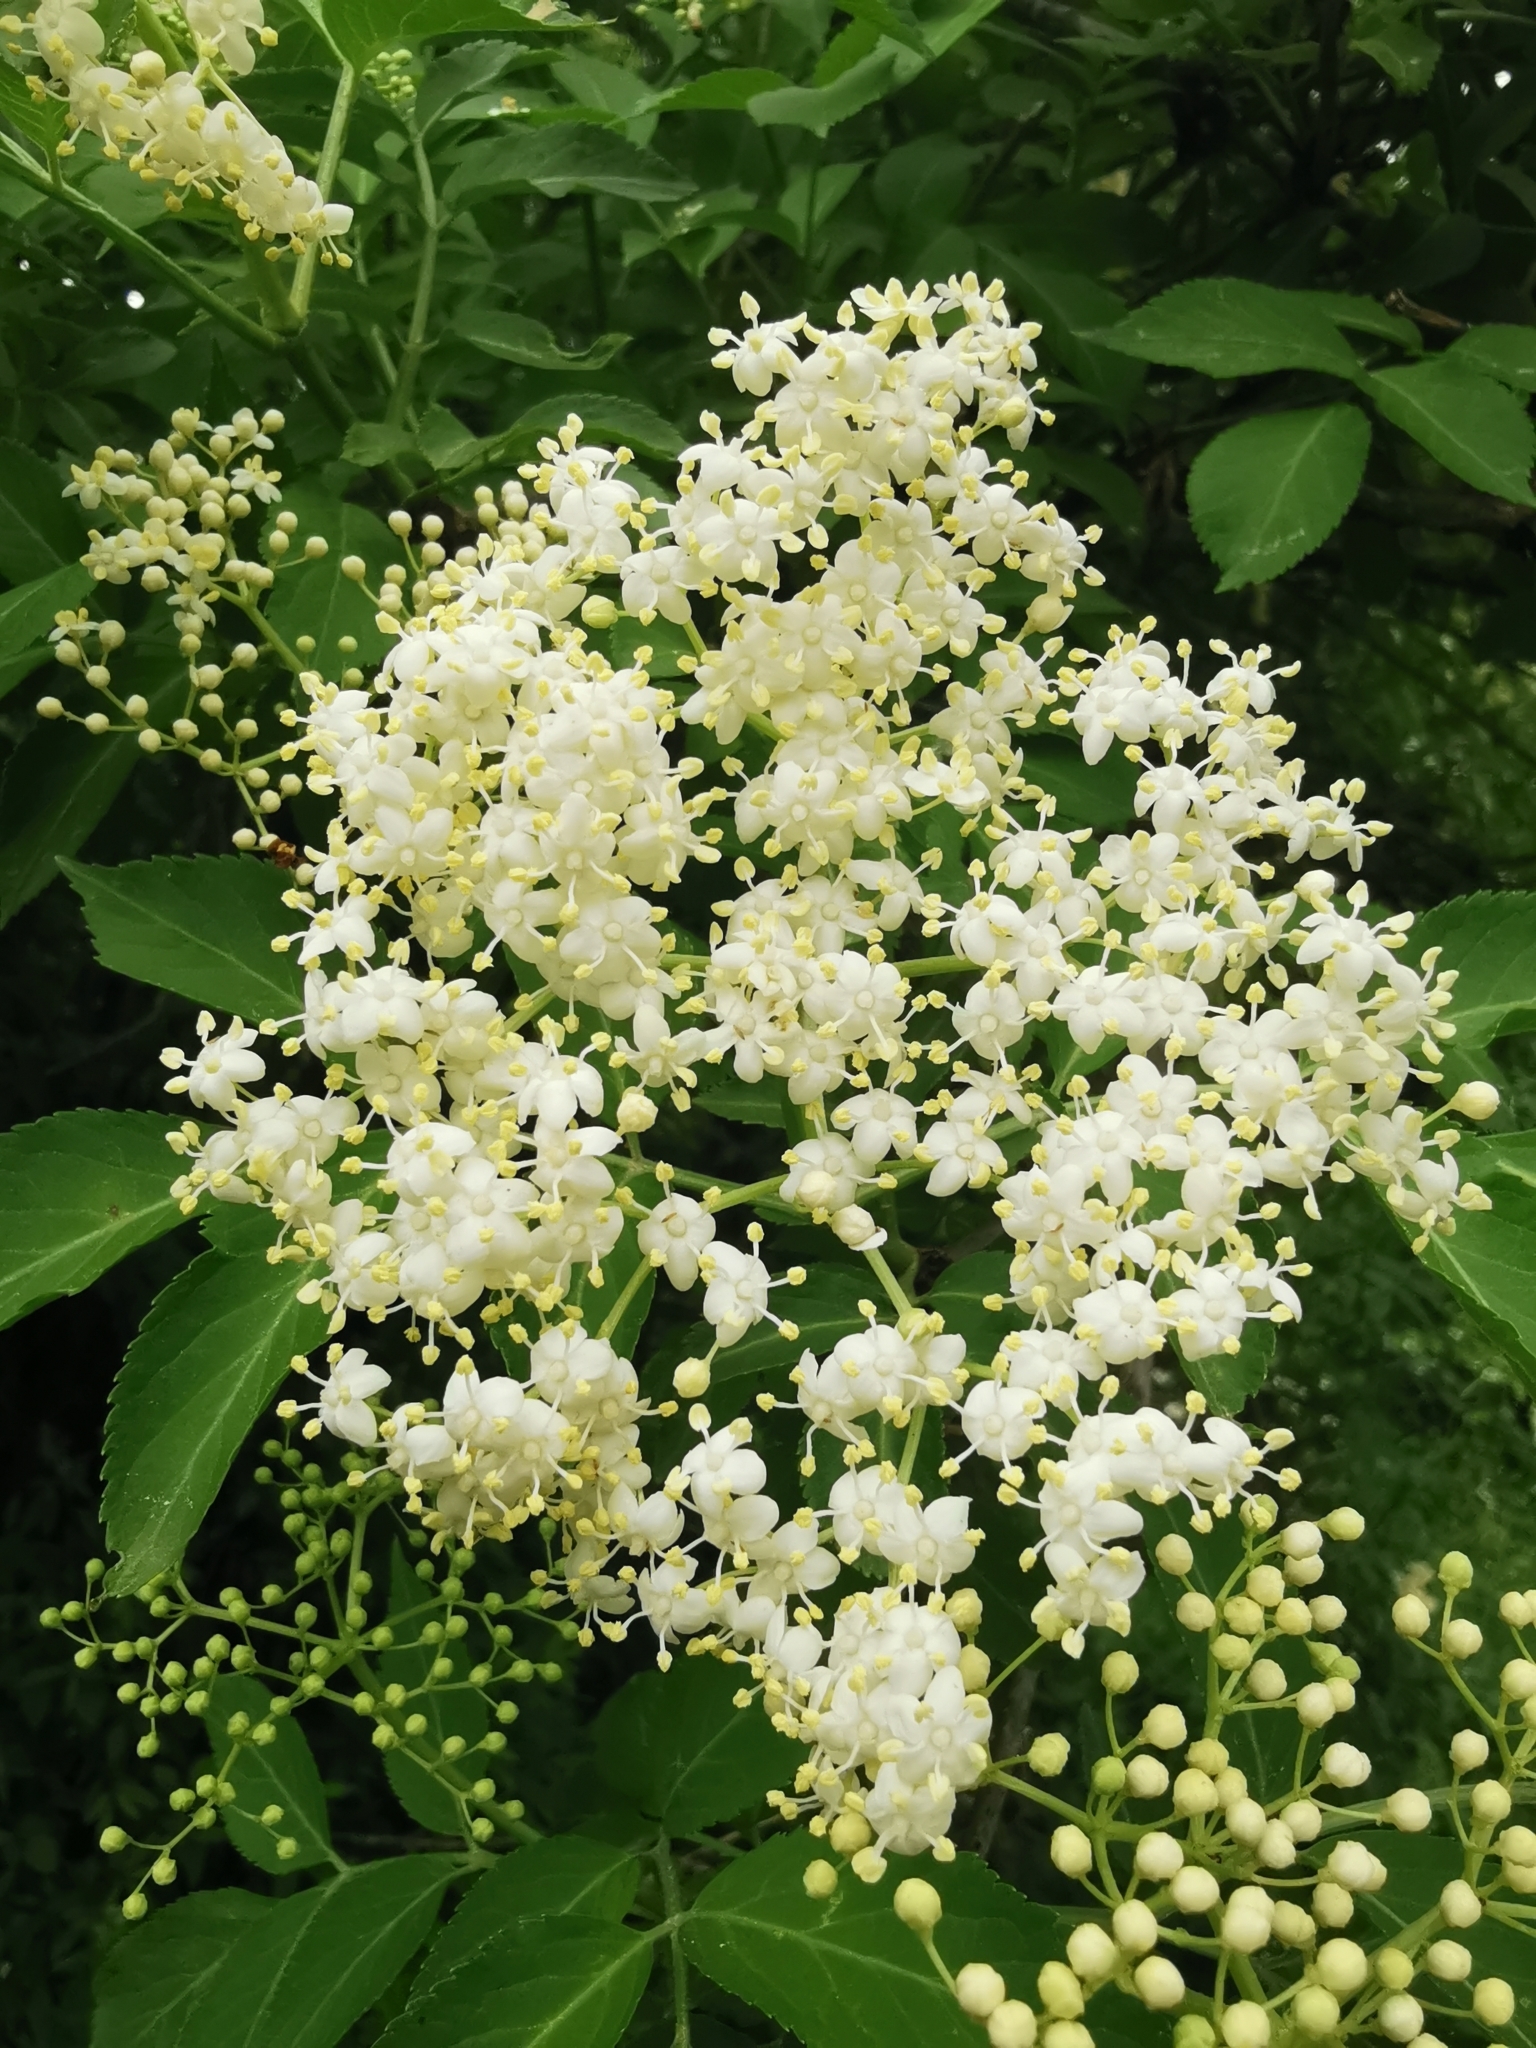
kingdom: Plantae
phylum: Tracheophyta
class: Magnoliopsida
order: Dipsacales
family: Viburnaceae
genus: Sambucus
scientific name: Sambucus nigra
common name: Elder
